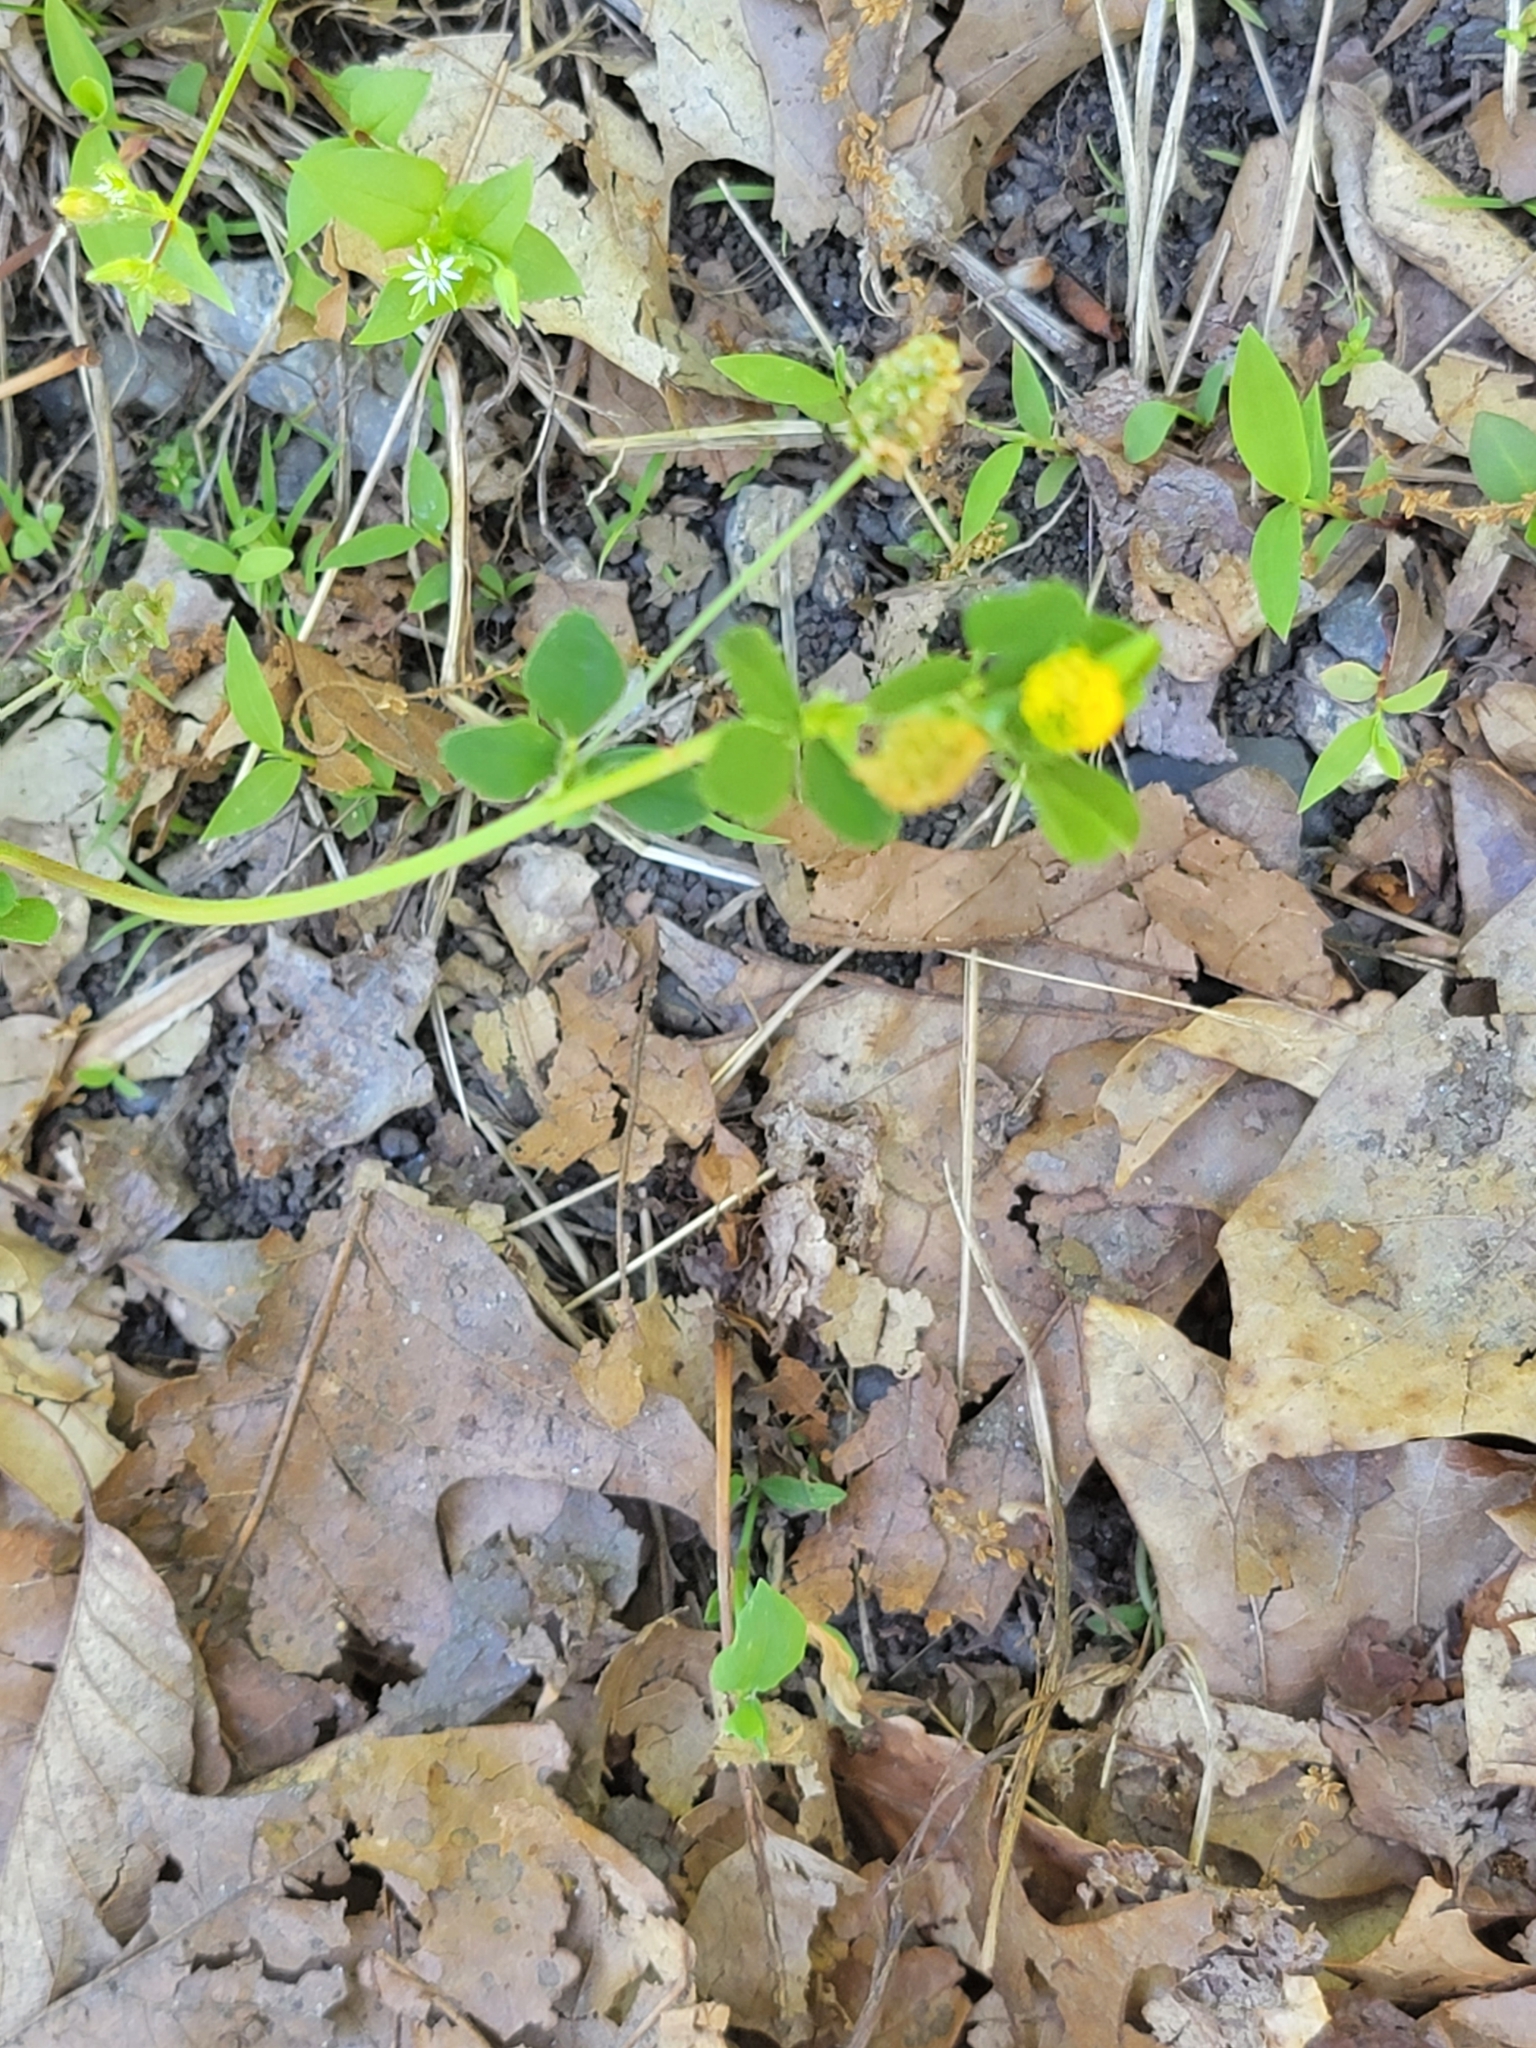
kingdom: Plantae
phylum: Tracheophyta
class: Magnoliopsida
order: Fabales
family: Fabaceae
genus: Medicago
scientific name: Medicago lupulina
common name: Black medick
